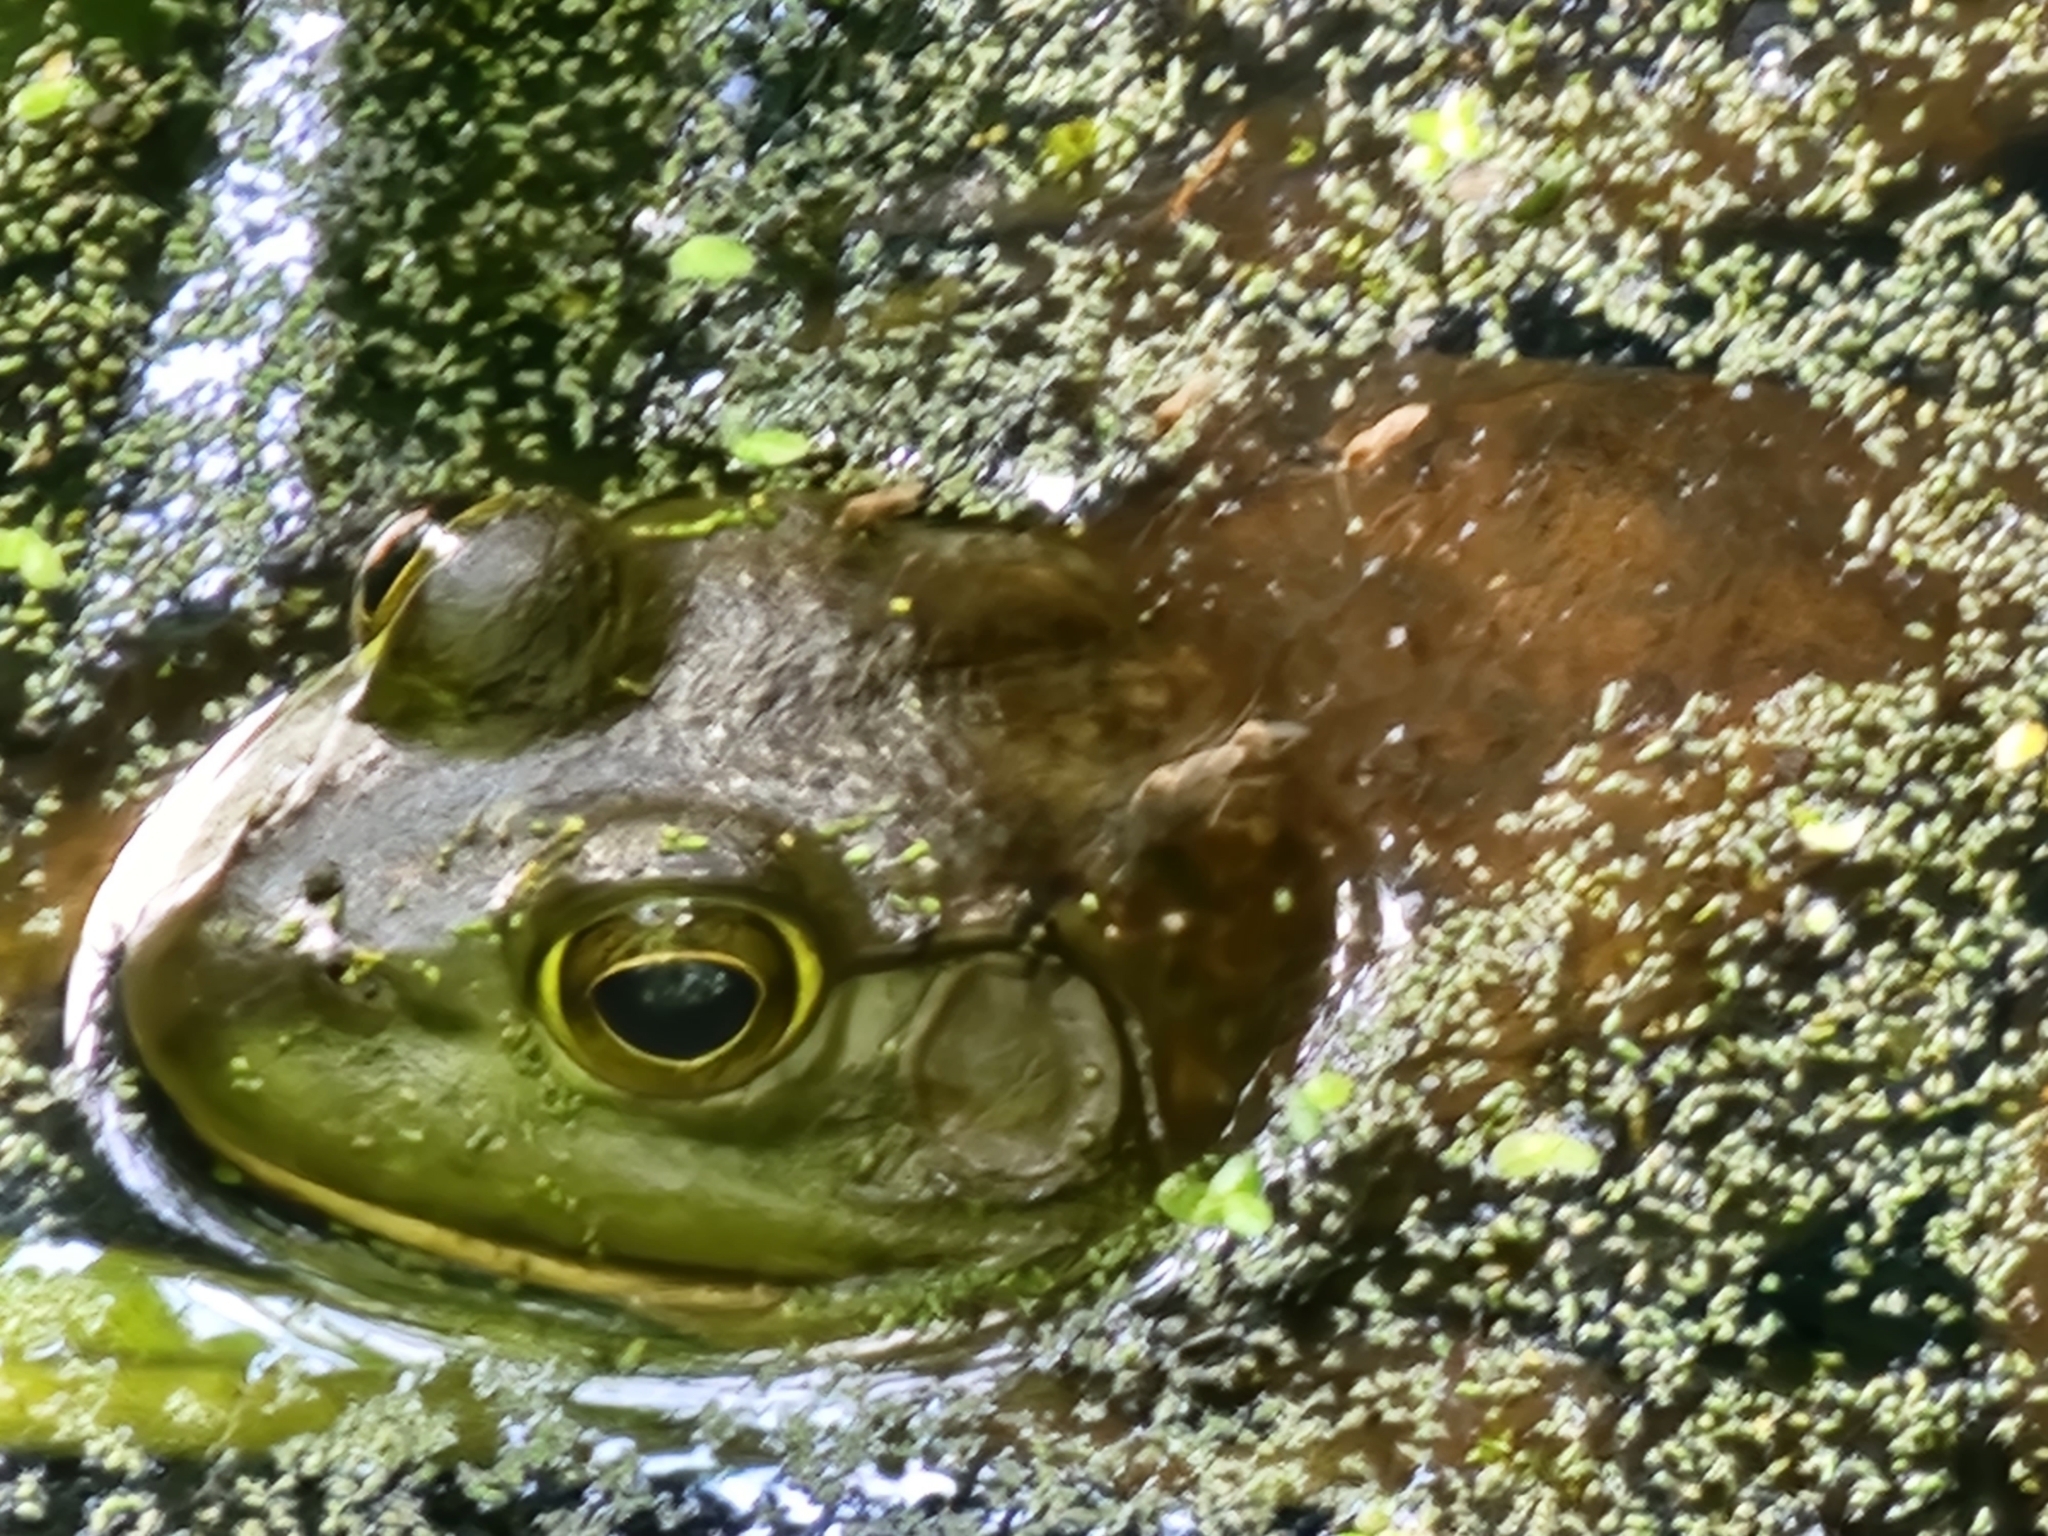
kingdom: Animalia
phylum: Chordata
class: Amphibia
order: Anura
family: Ranidae
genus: Lithobates
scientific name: Lithobates catesbeianus
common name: American bullfrog
